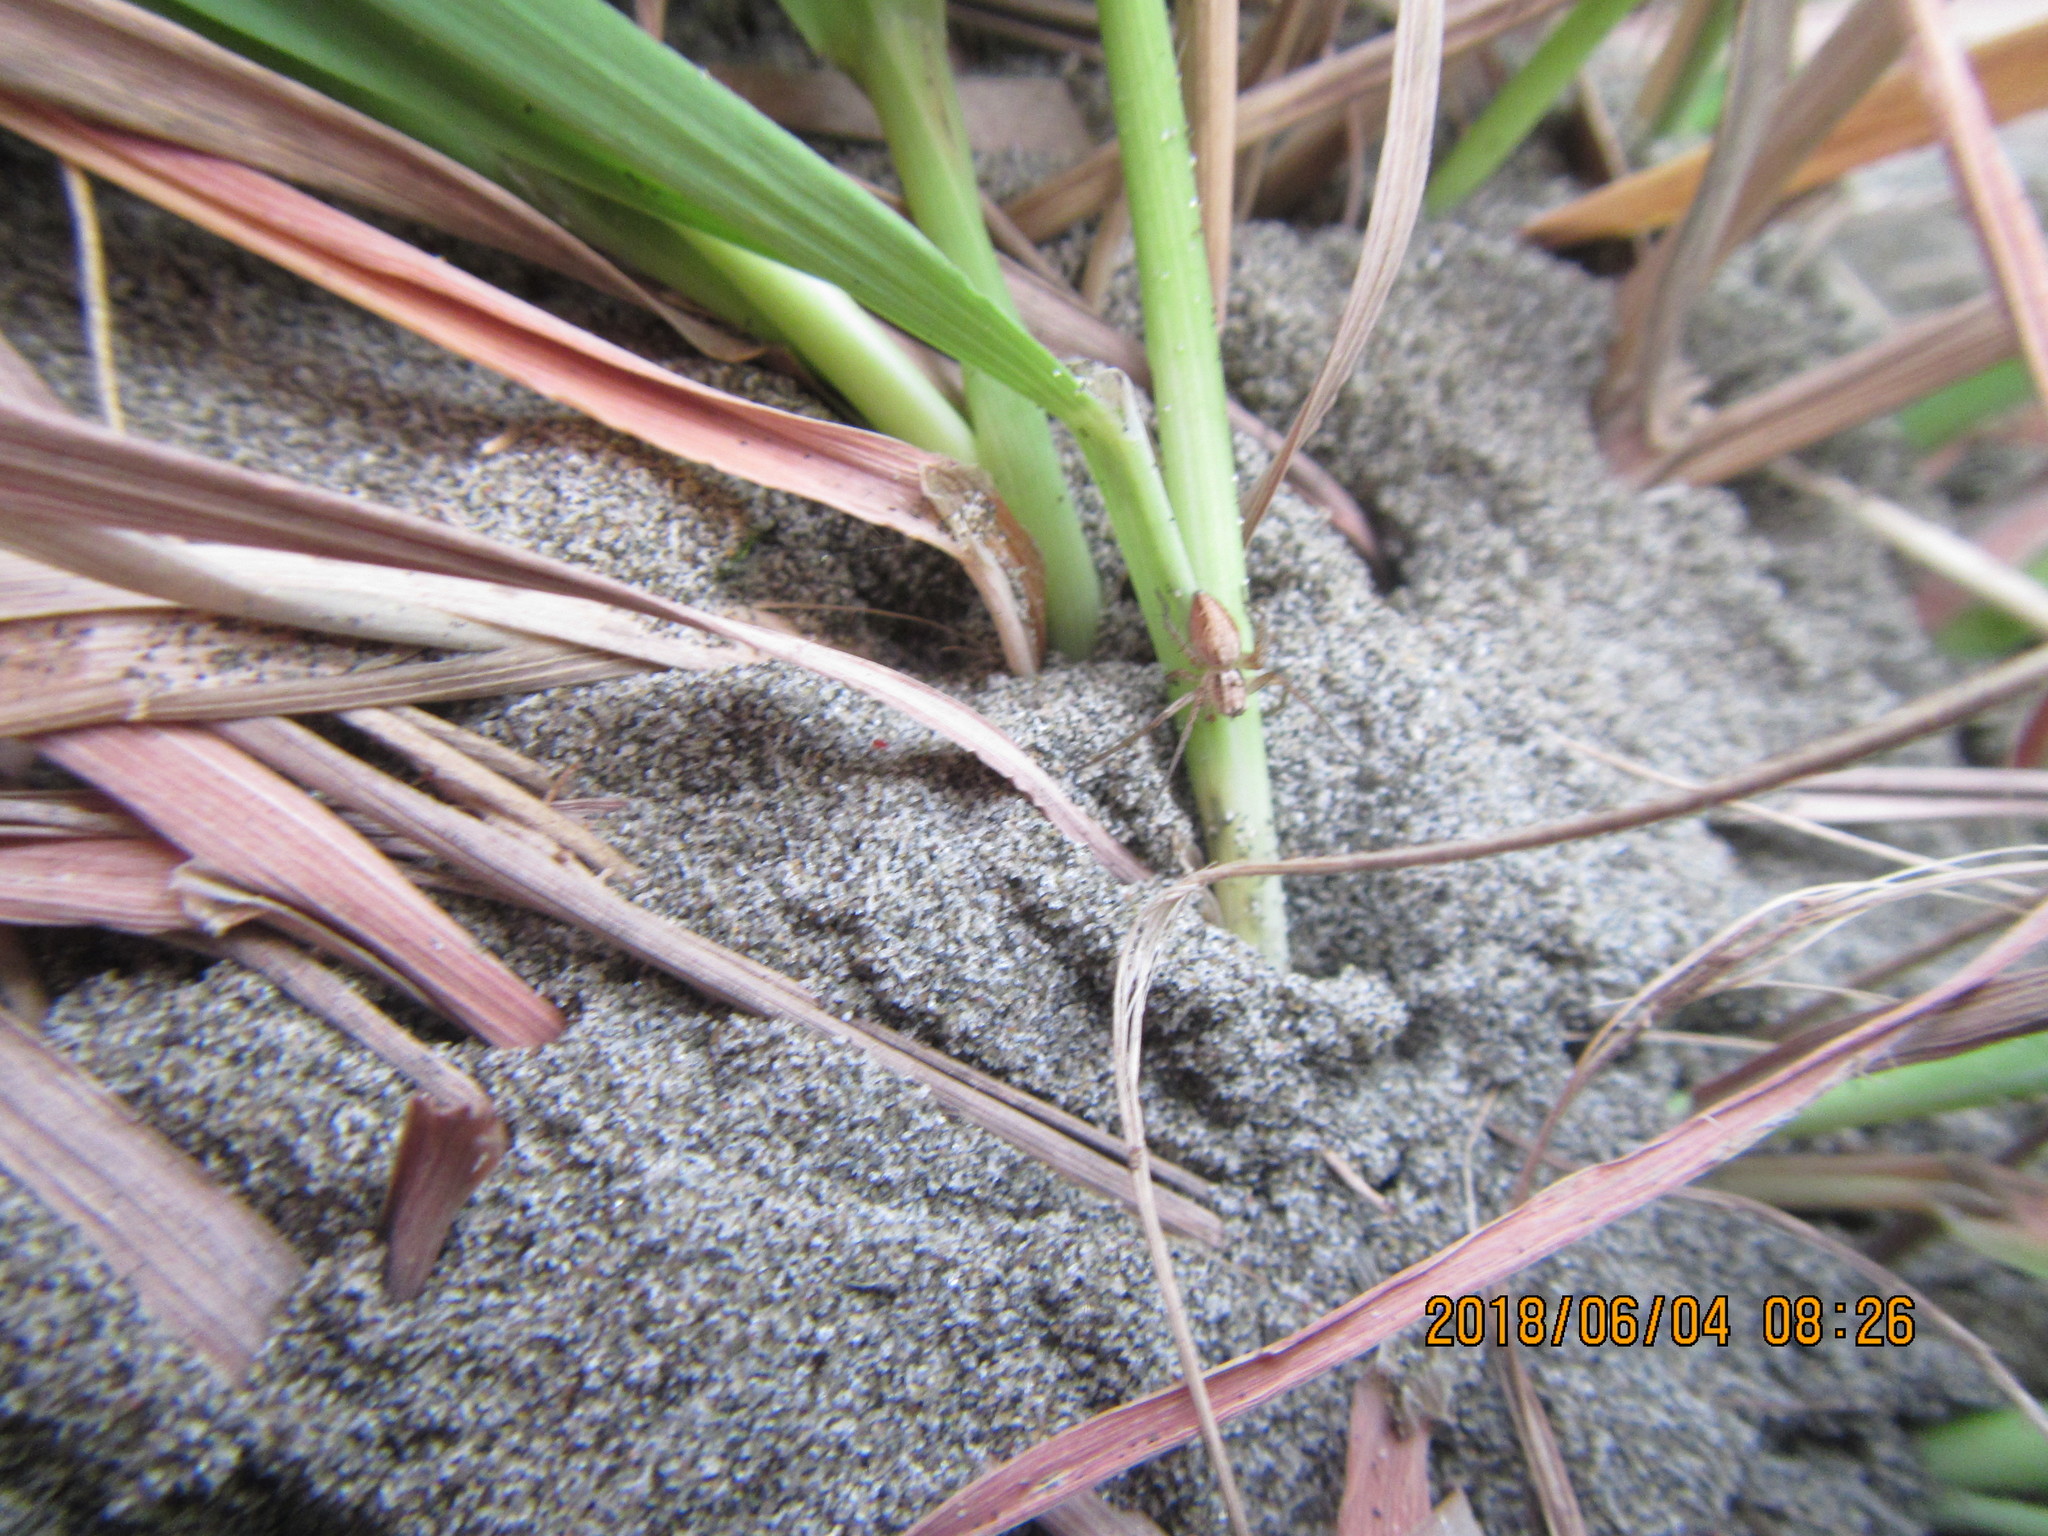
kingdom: Animalia
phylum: Arthropoda
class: Arachnida
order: Araneae
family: Oxyopidae
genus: Oxyopes
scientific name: Oxyopes gracilipes
